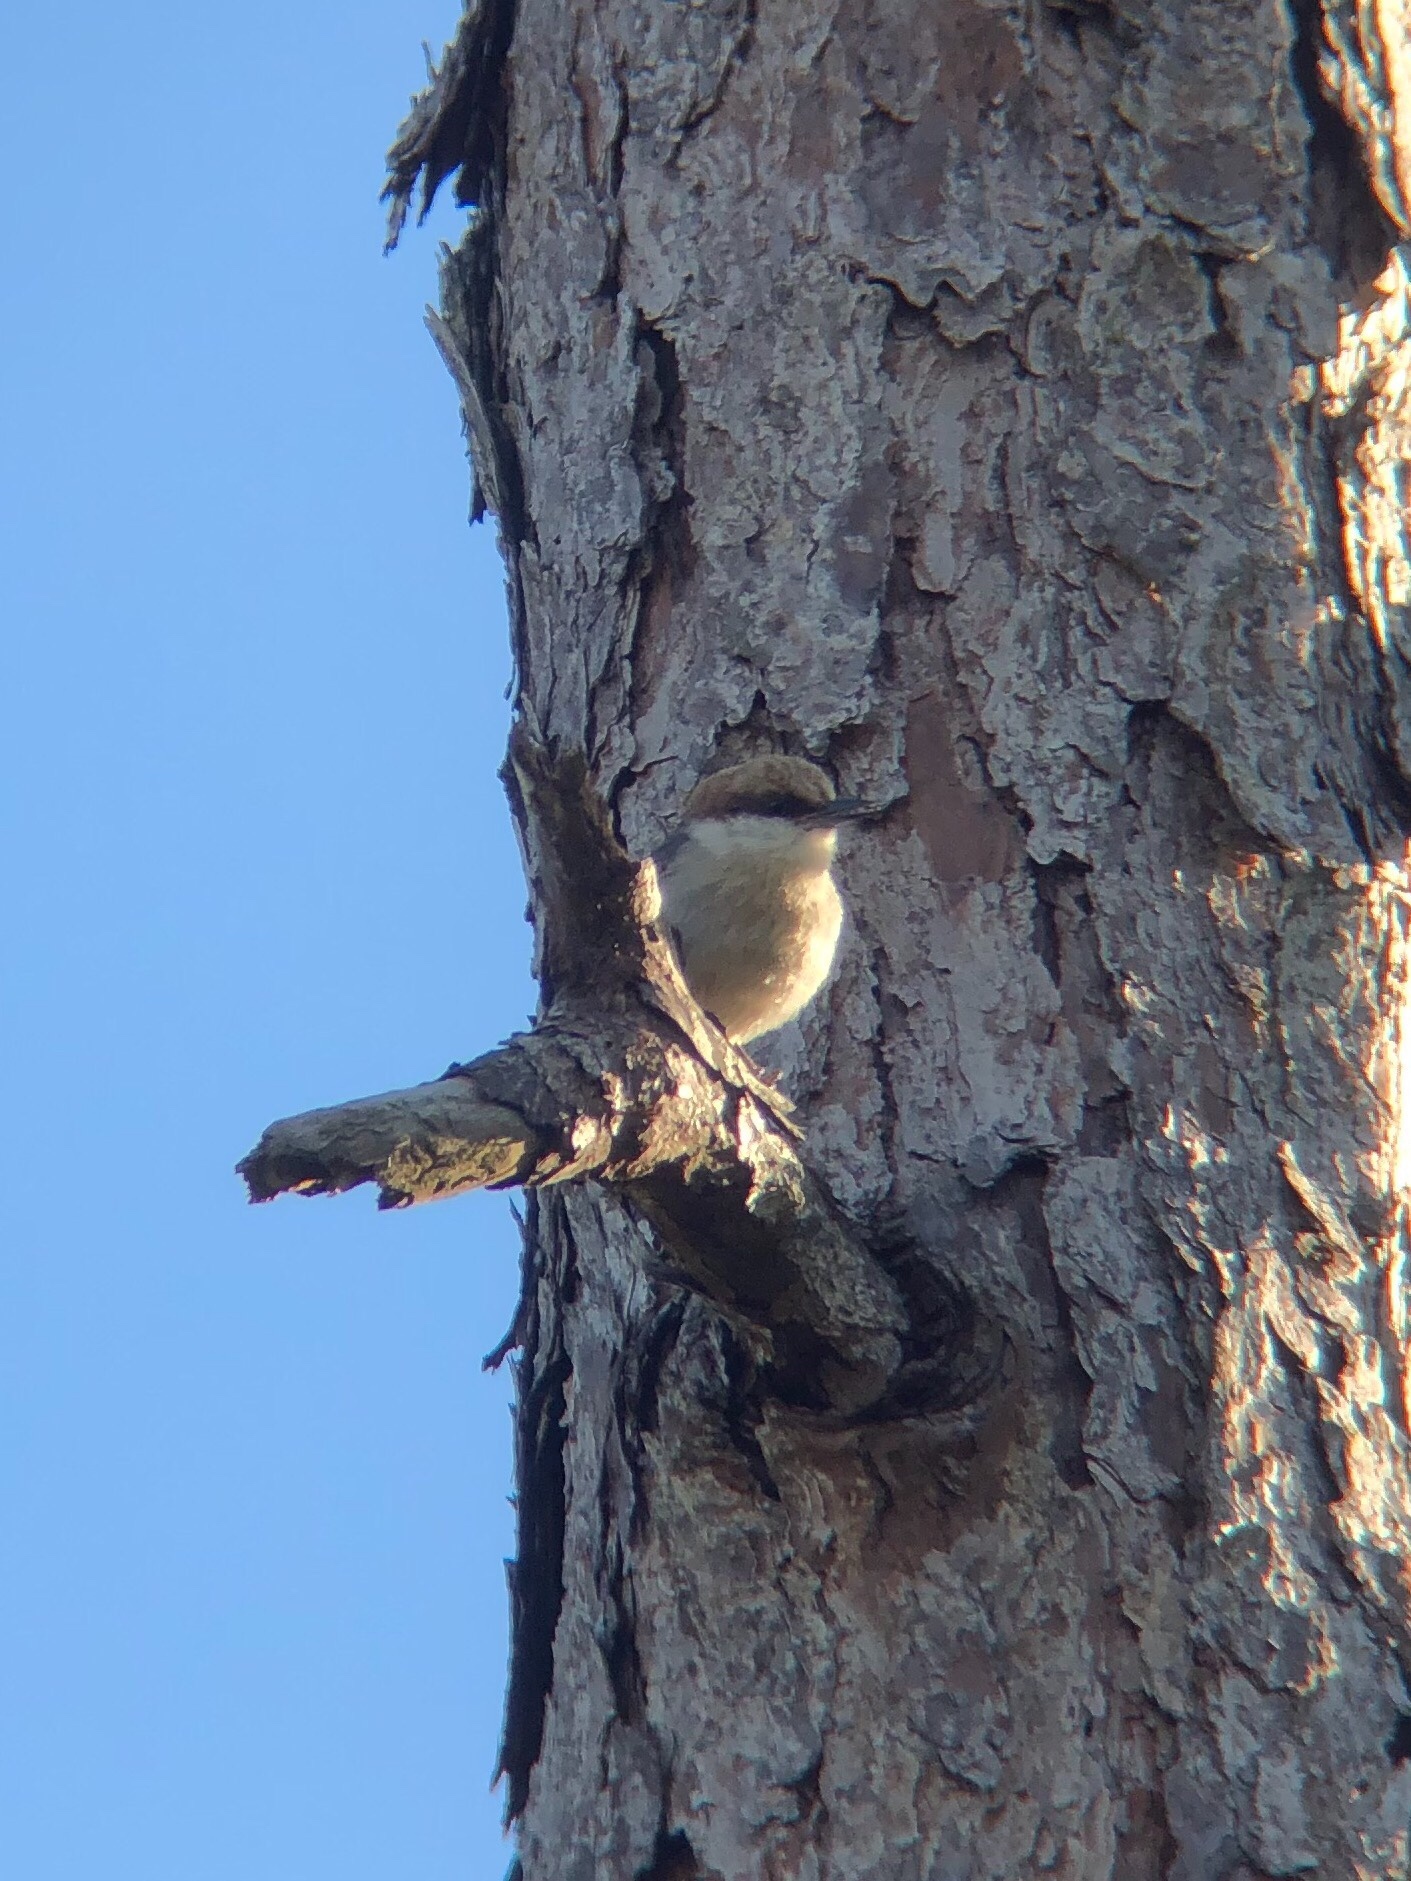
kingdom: Animalia
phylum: Chordata
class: Aves
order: Passeriformes
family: Sittidae
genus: Sitta
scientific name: Sitta pusilla
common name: Brown-headed nuthatch
